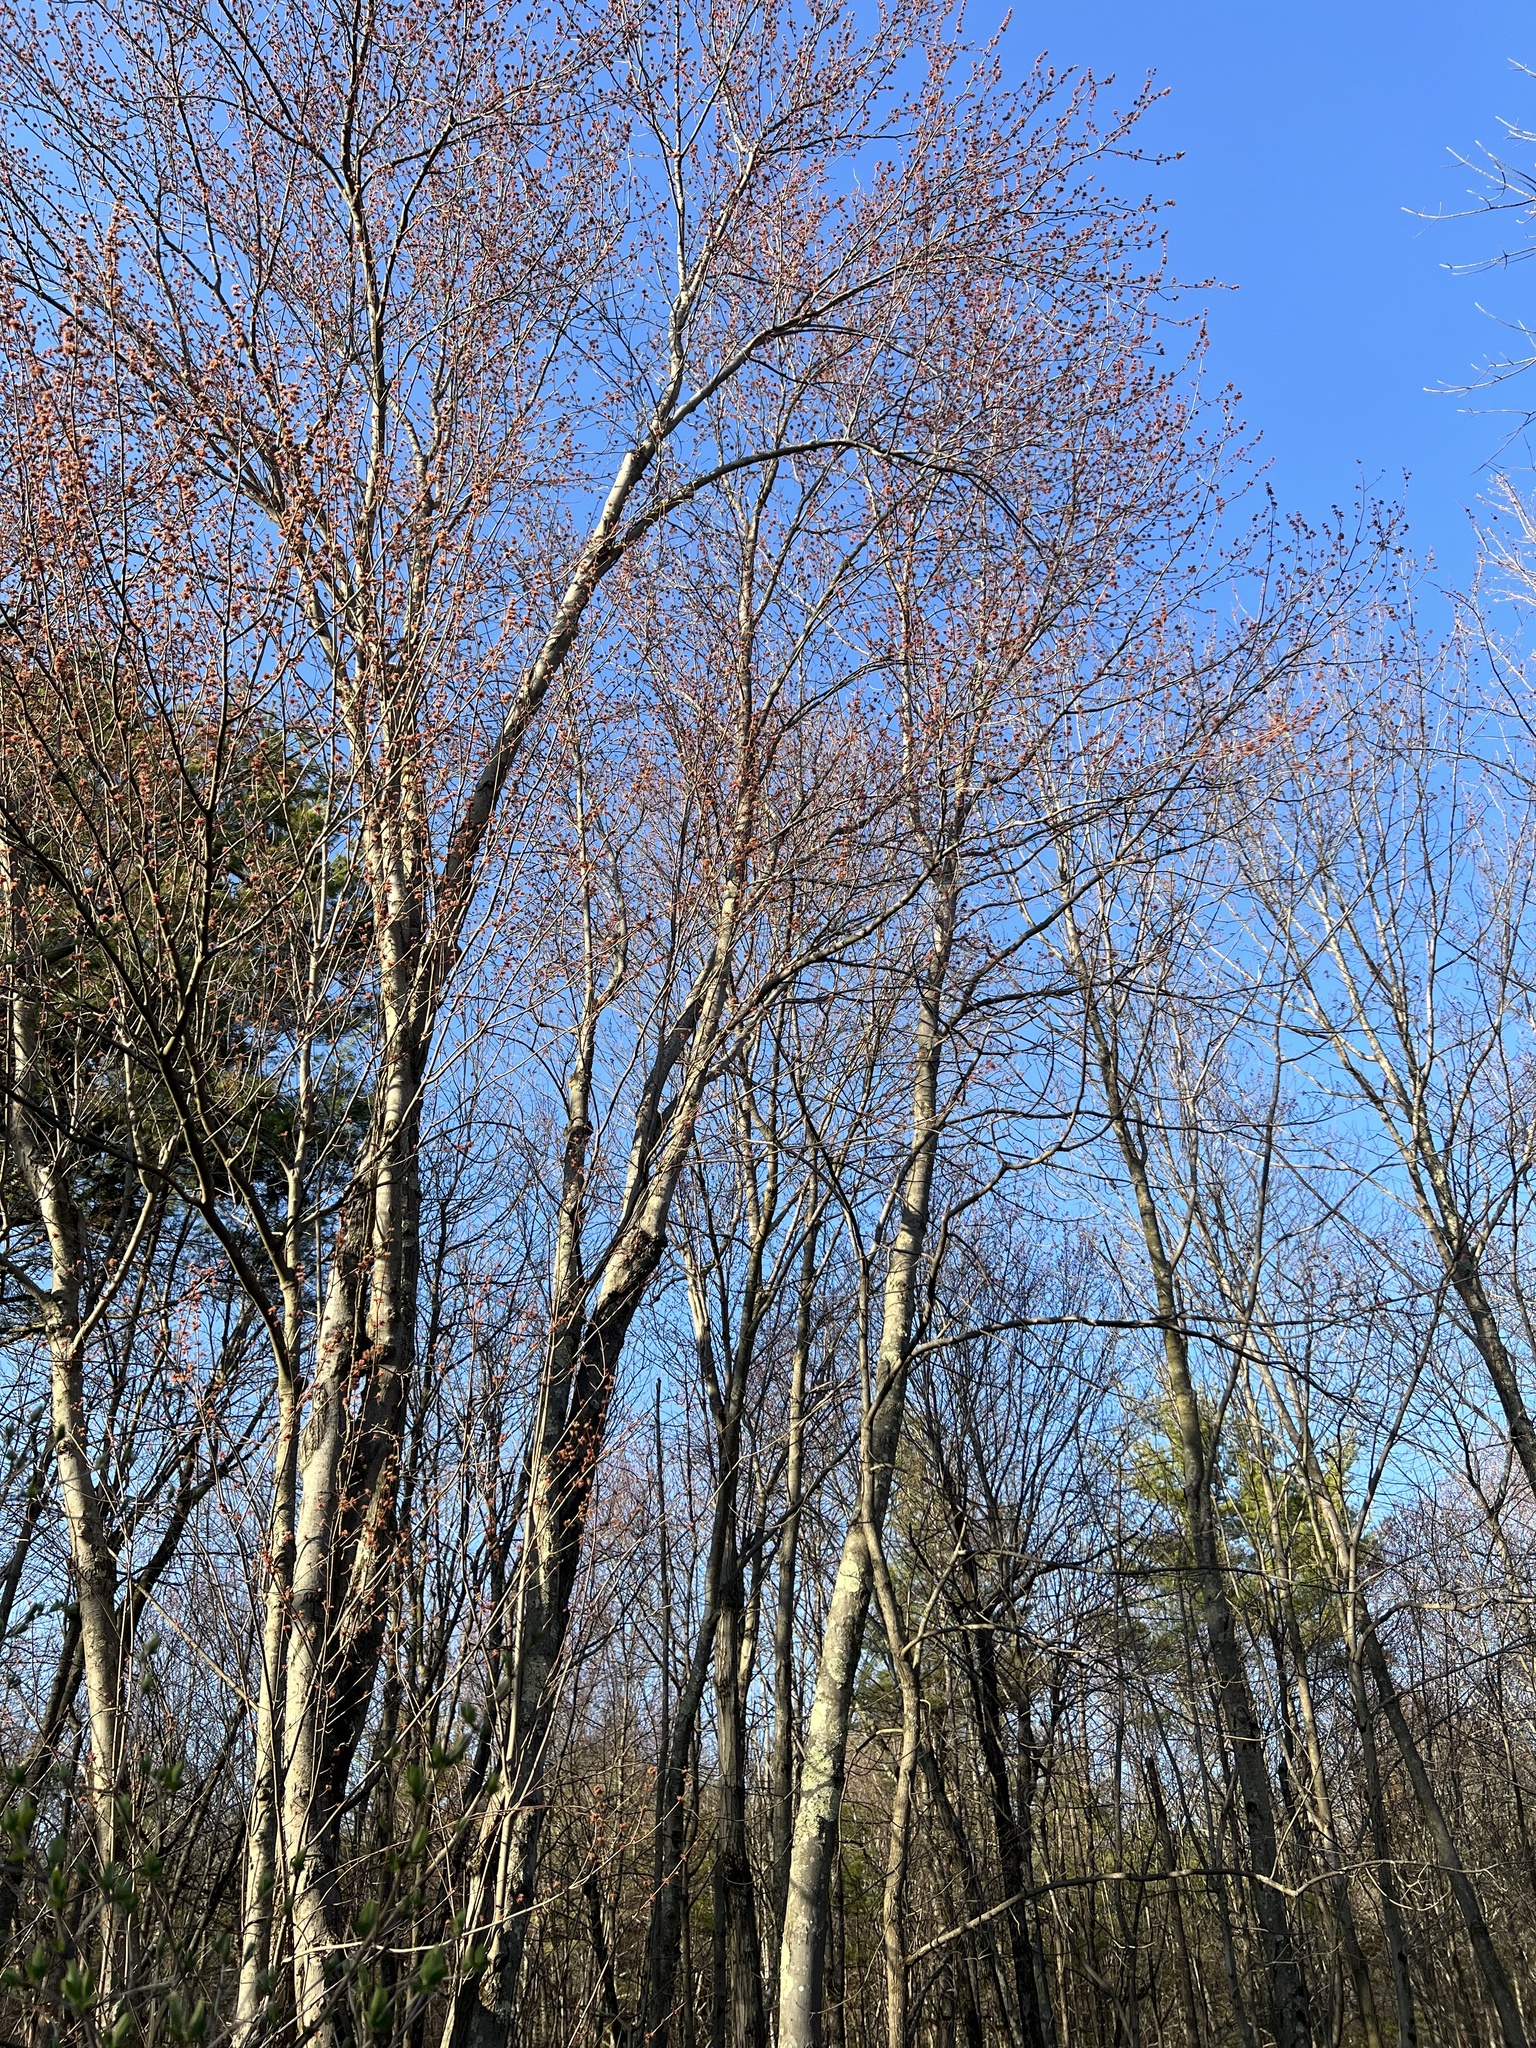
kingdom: Plantae
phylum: Tracheophyta
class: Magnoliopsida
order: Sapindales
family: Sapindaceae
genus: Acer
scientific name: Acer rubrum
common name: Red maple
